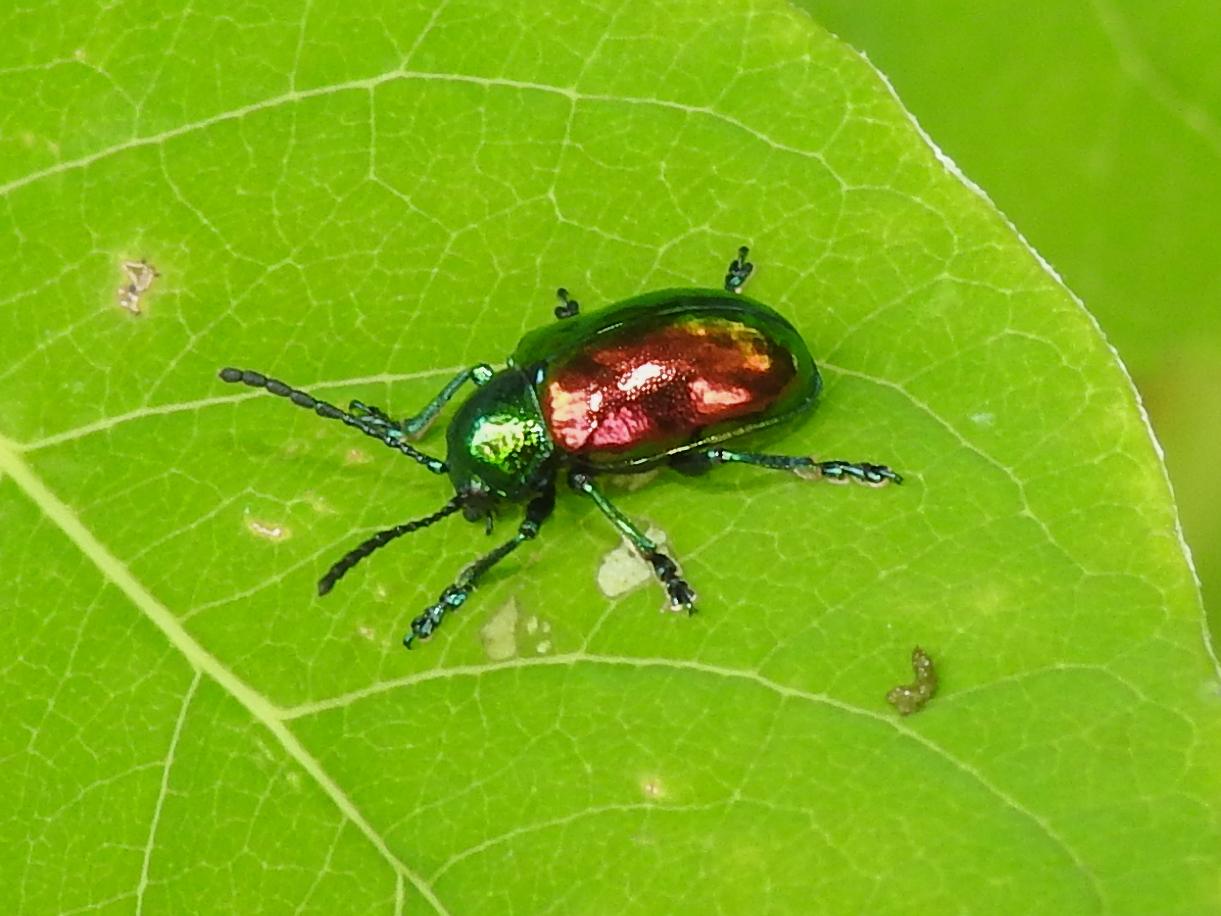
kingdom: Animalia
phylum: Arthropoda
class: Insecta
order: Coleoptera
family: Chrysomelidae
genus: Chrysochus
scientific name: Chrysochus auratus
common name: Dogbane leaf beetle
